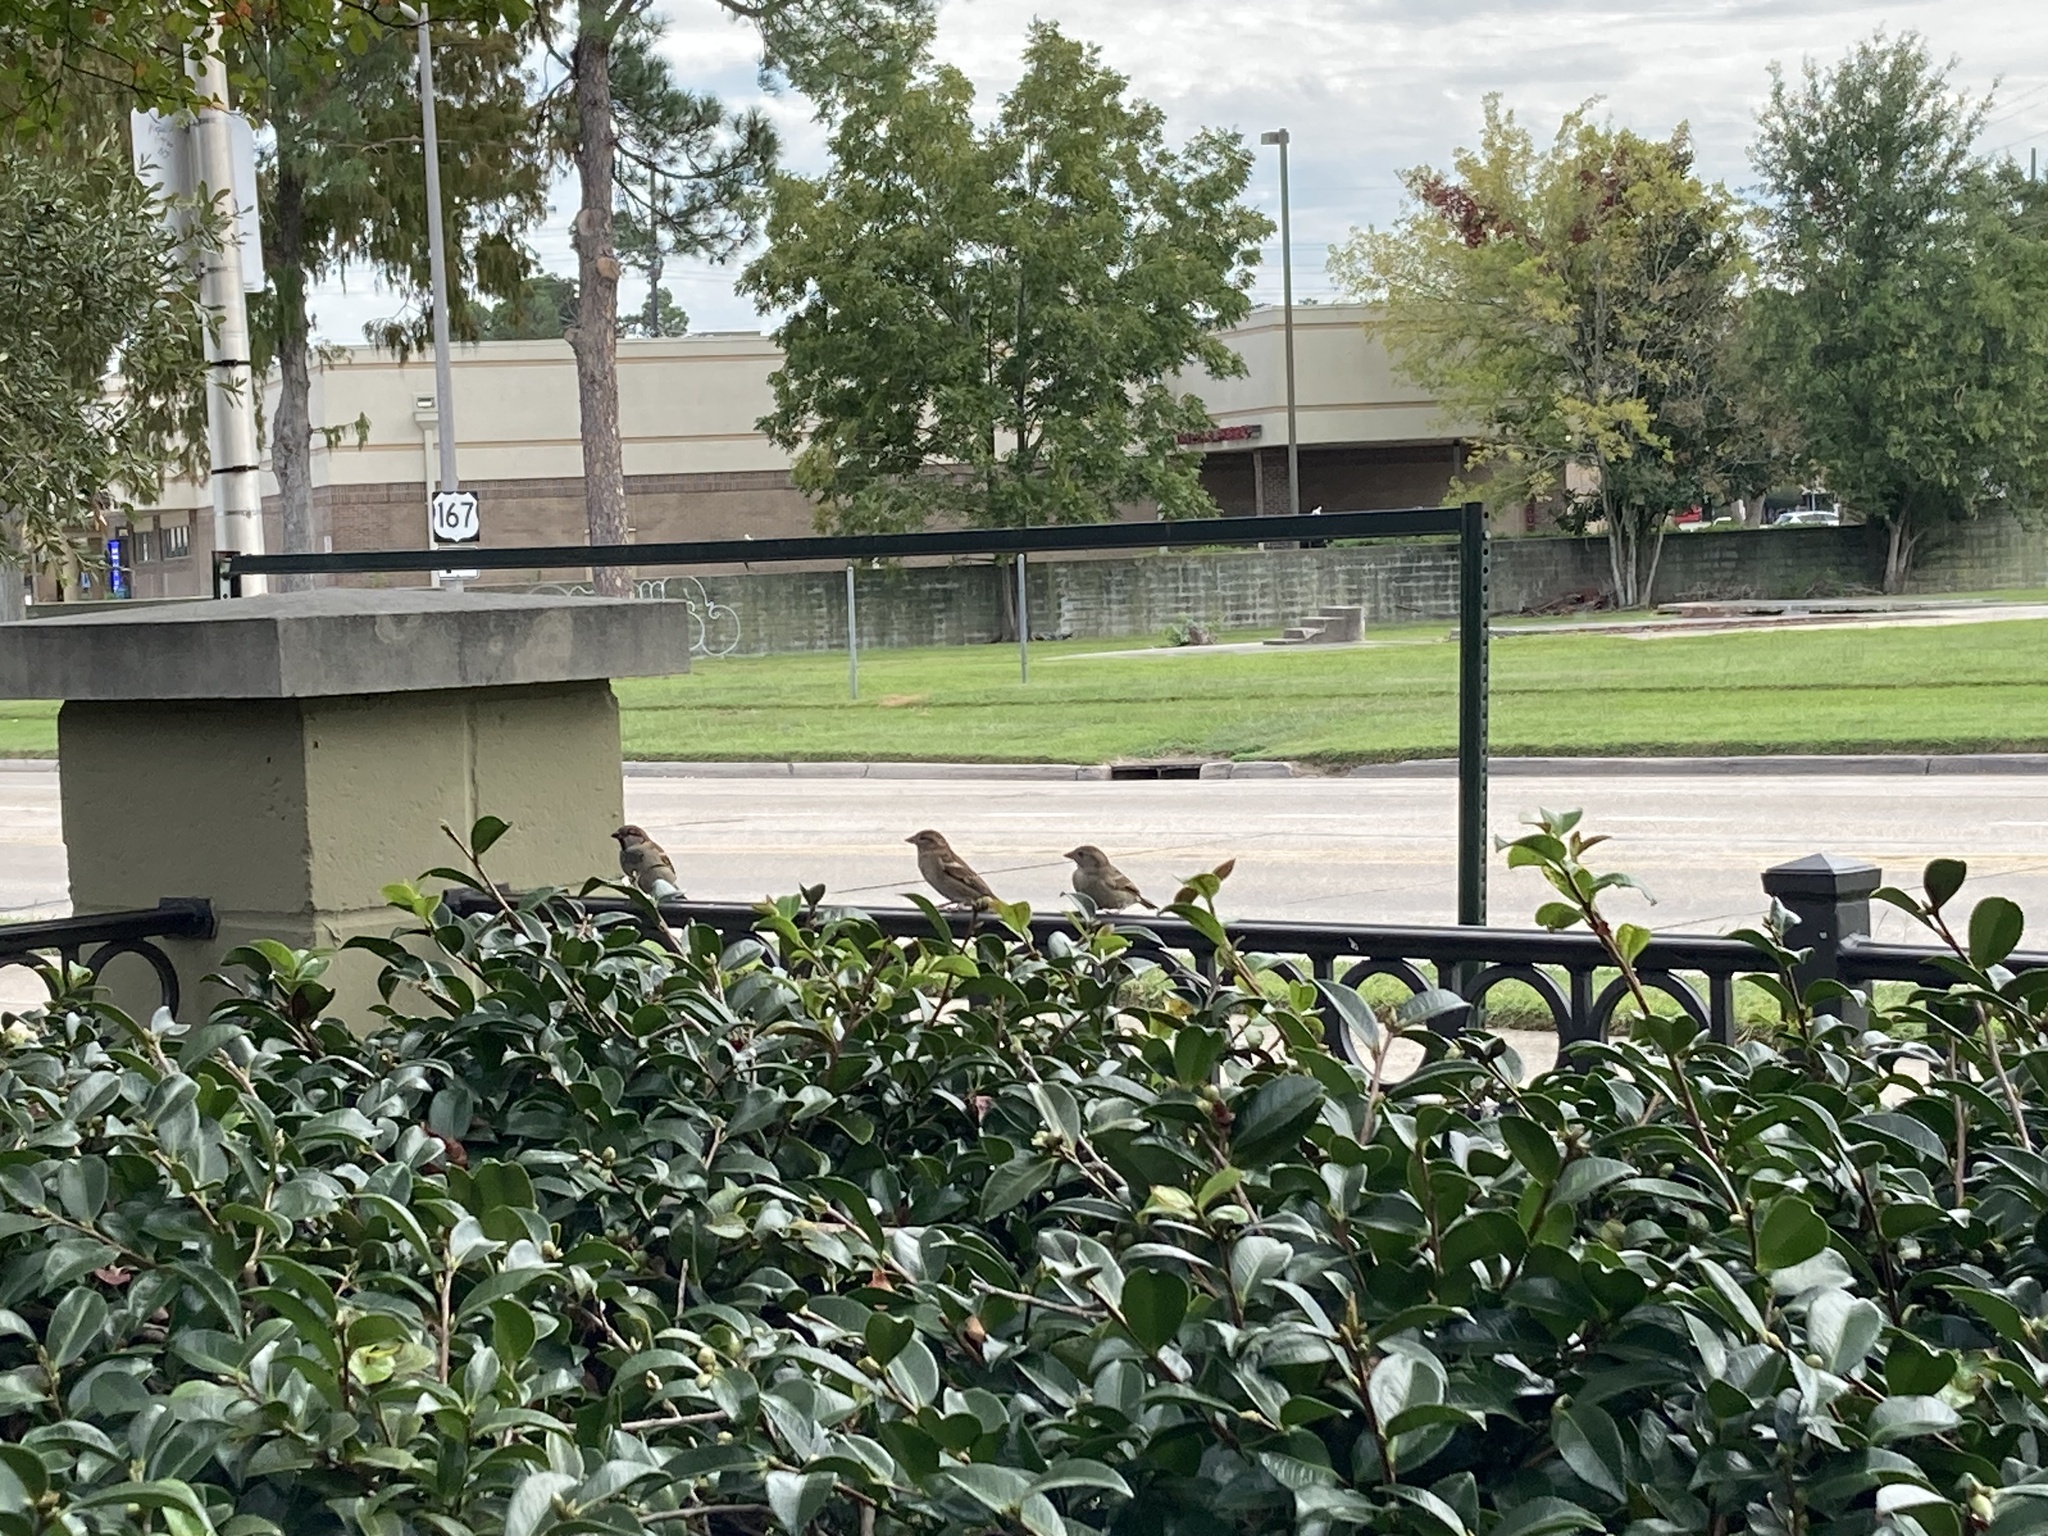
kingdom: Animalia
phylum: Chordata
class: Aves
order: Passeriformes
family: Passeridae
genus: Passer
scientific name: Passer domesticus
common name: House sparrow
